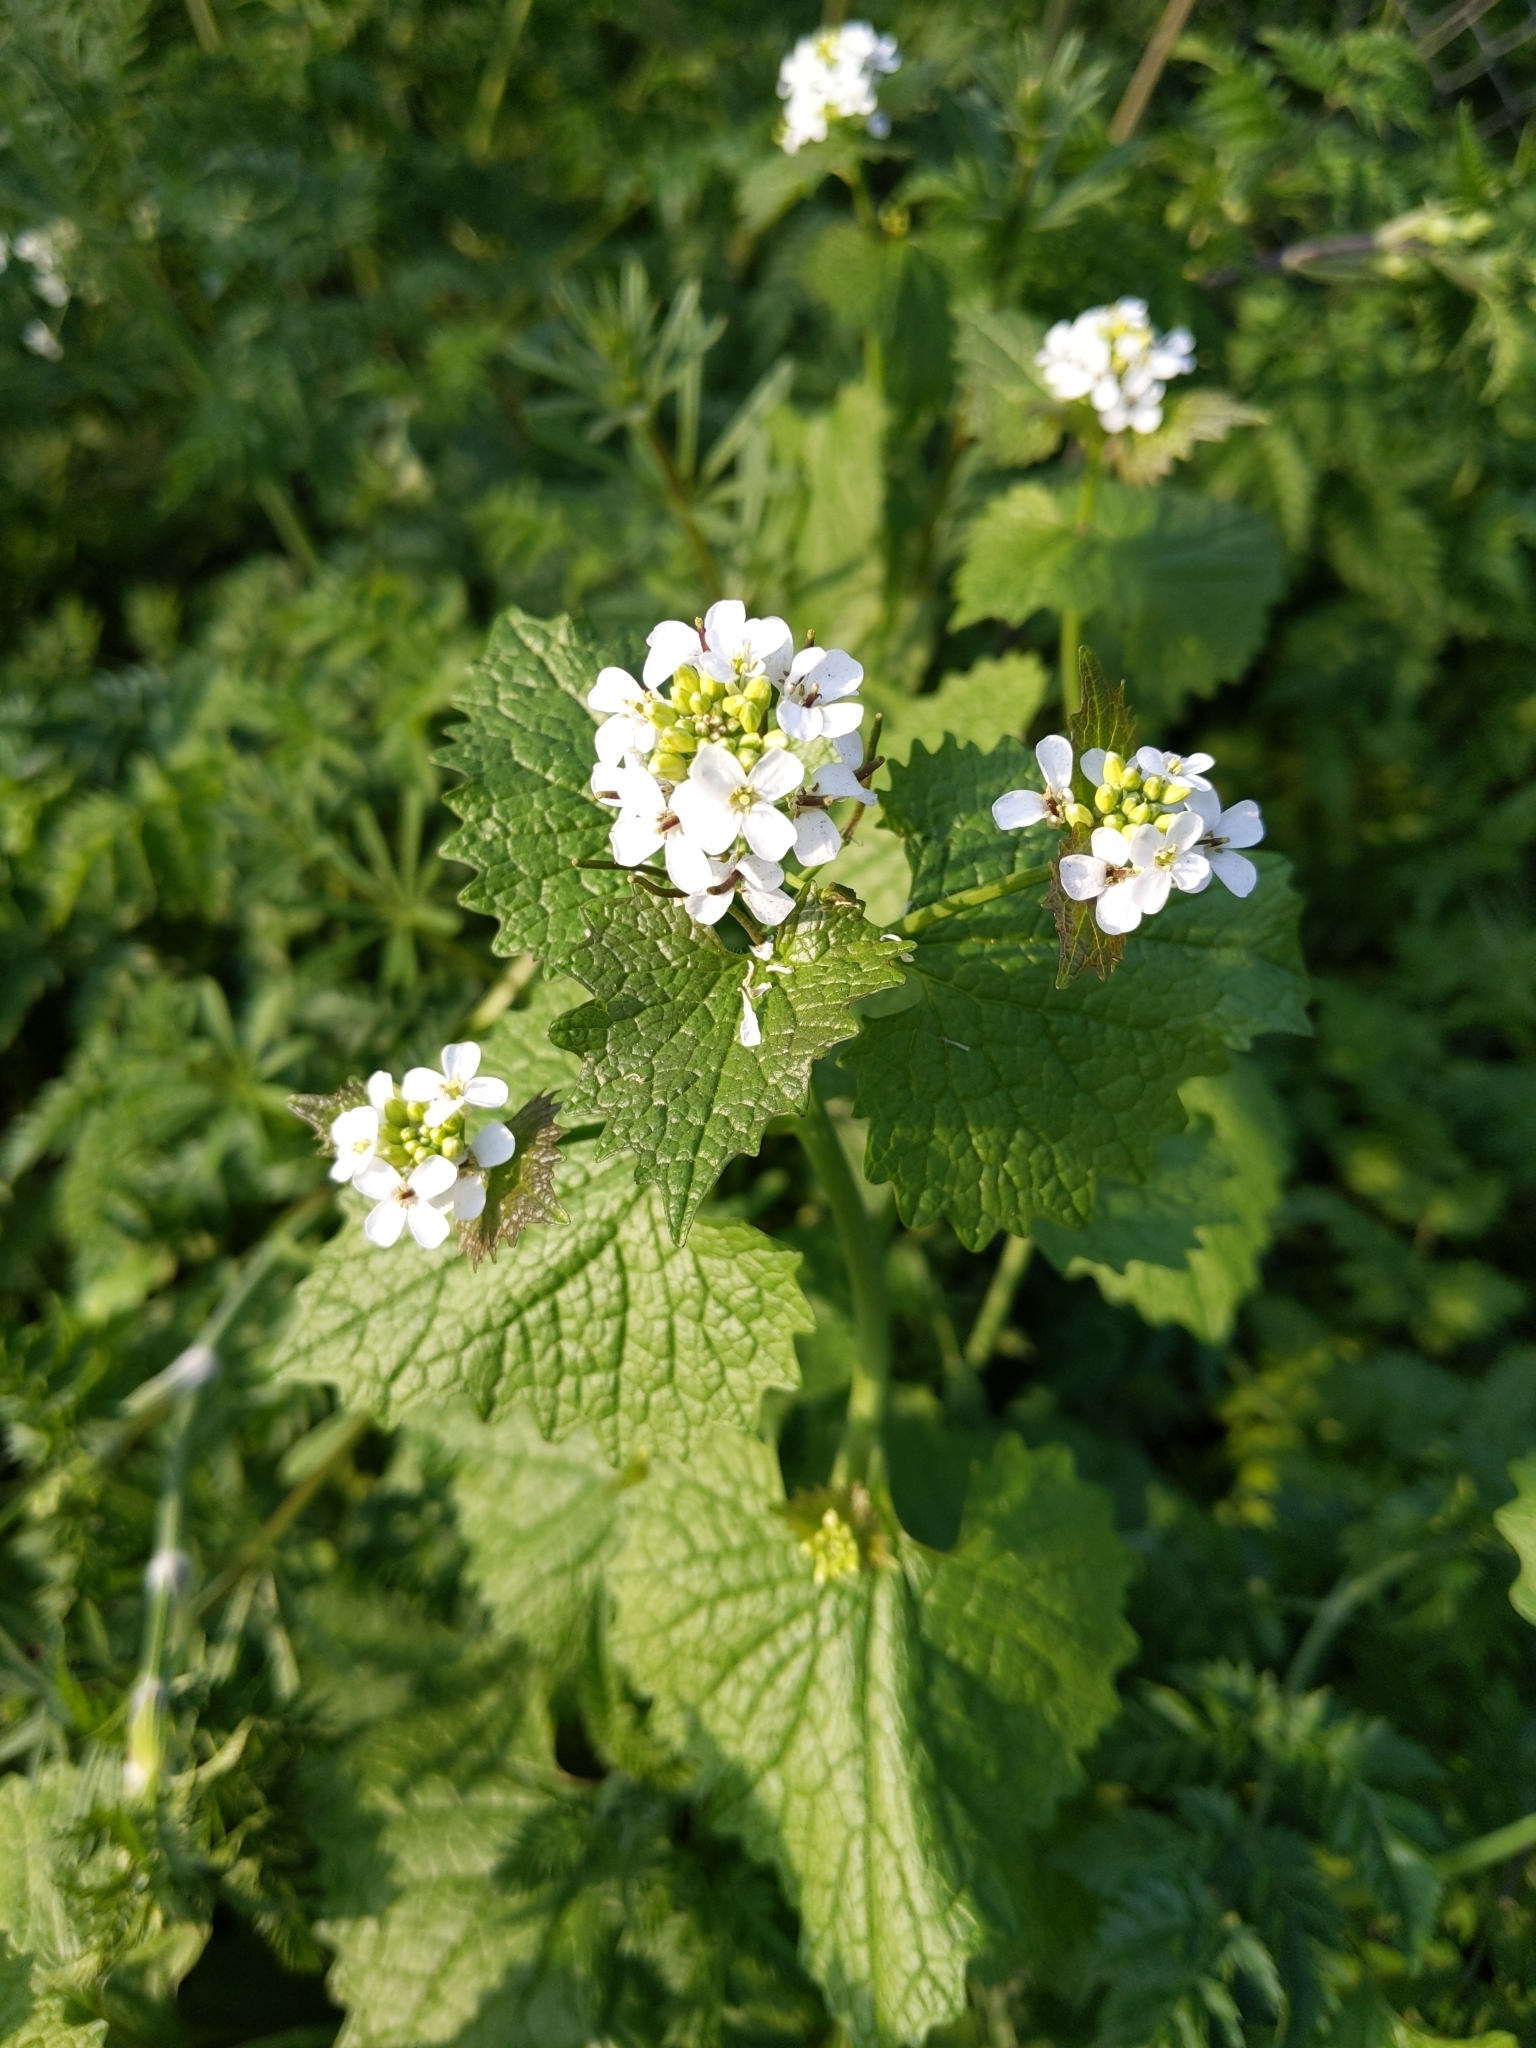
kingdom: Plantae
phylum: Tracheophyta
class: Magnoliopsida
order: Brassicales
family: Brassicaceae
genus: Alliaria
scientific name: Alliaria petiolata
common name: Garlic mustard
